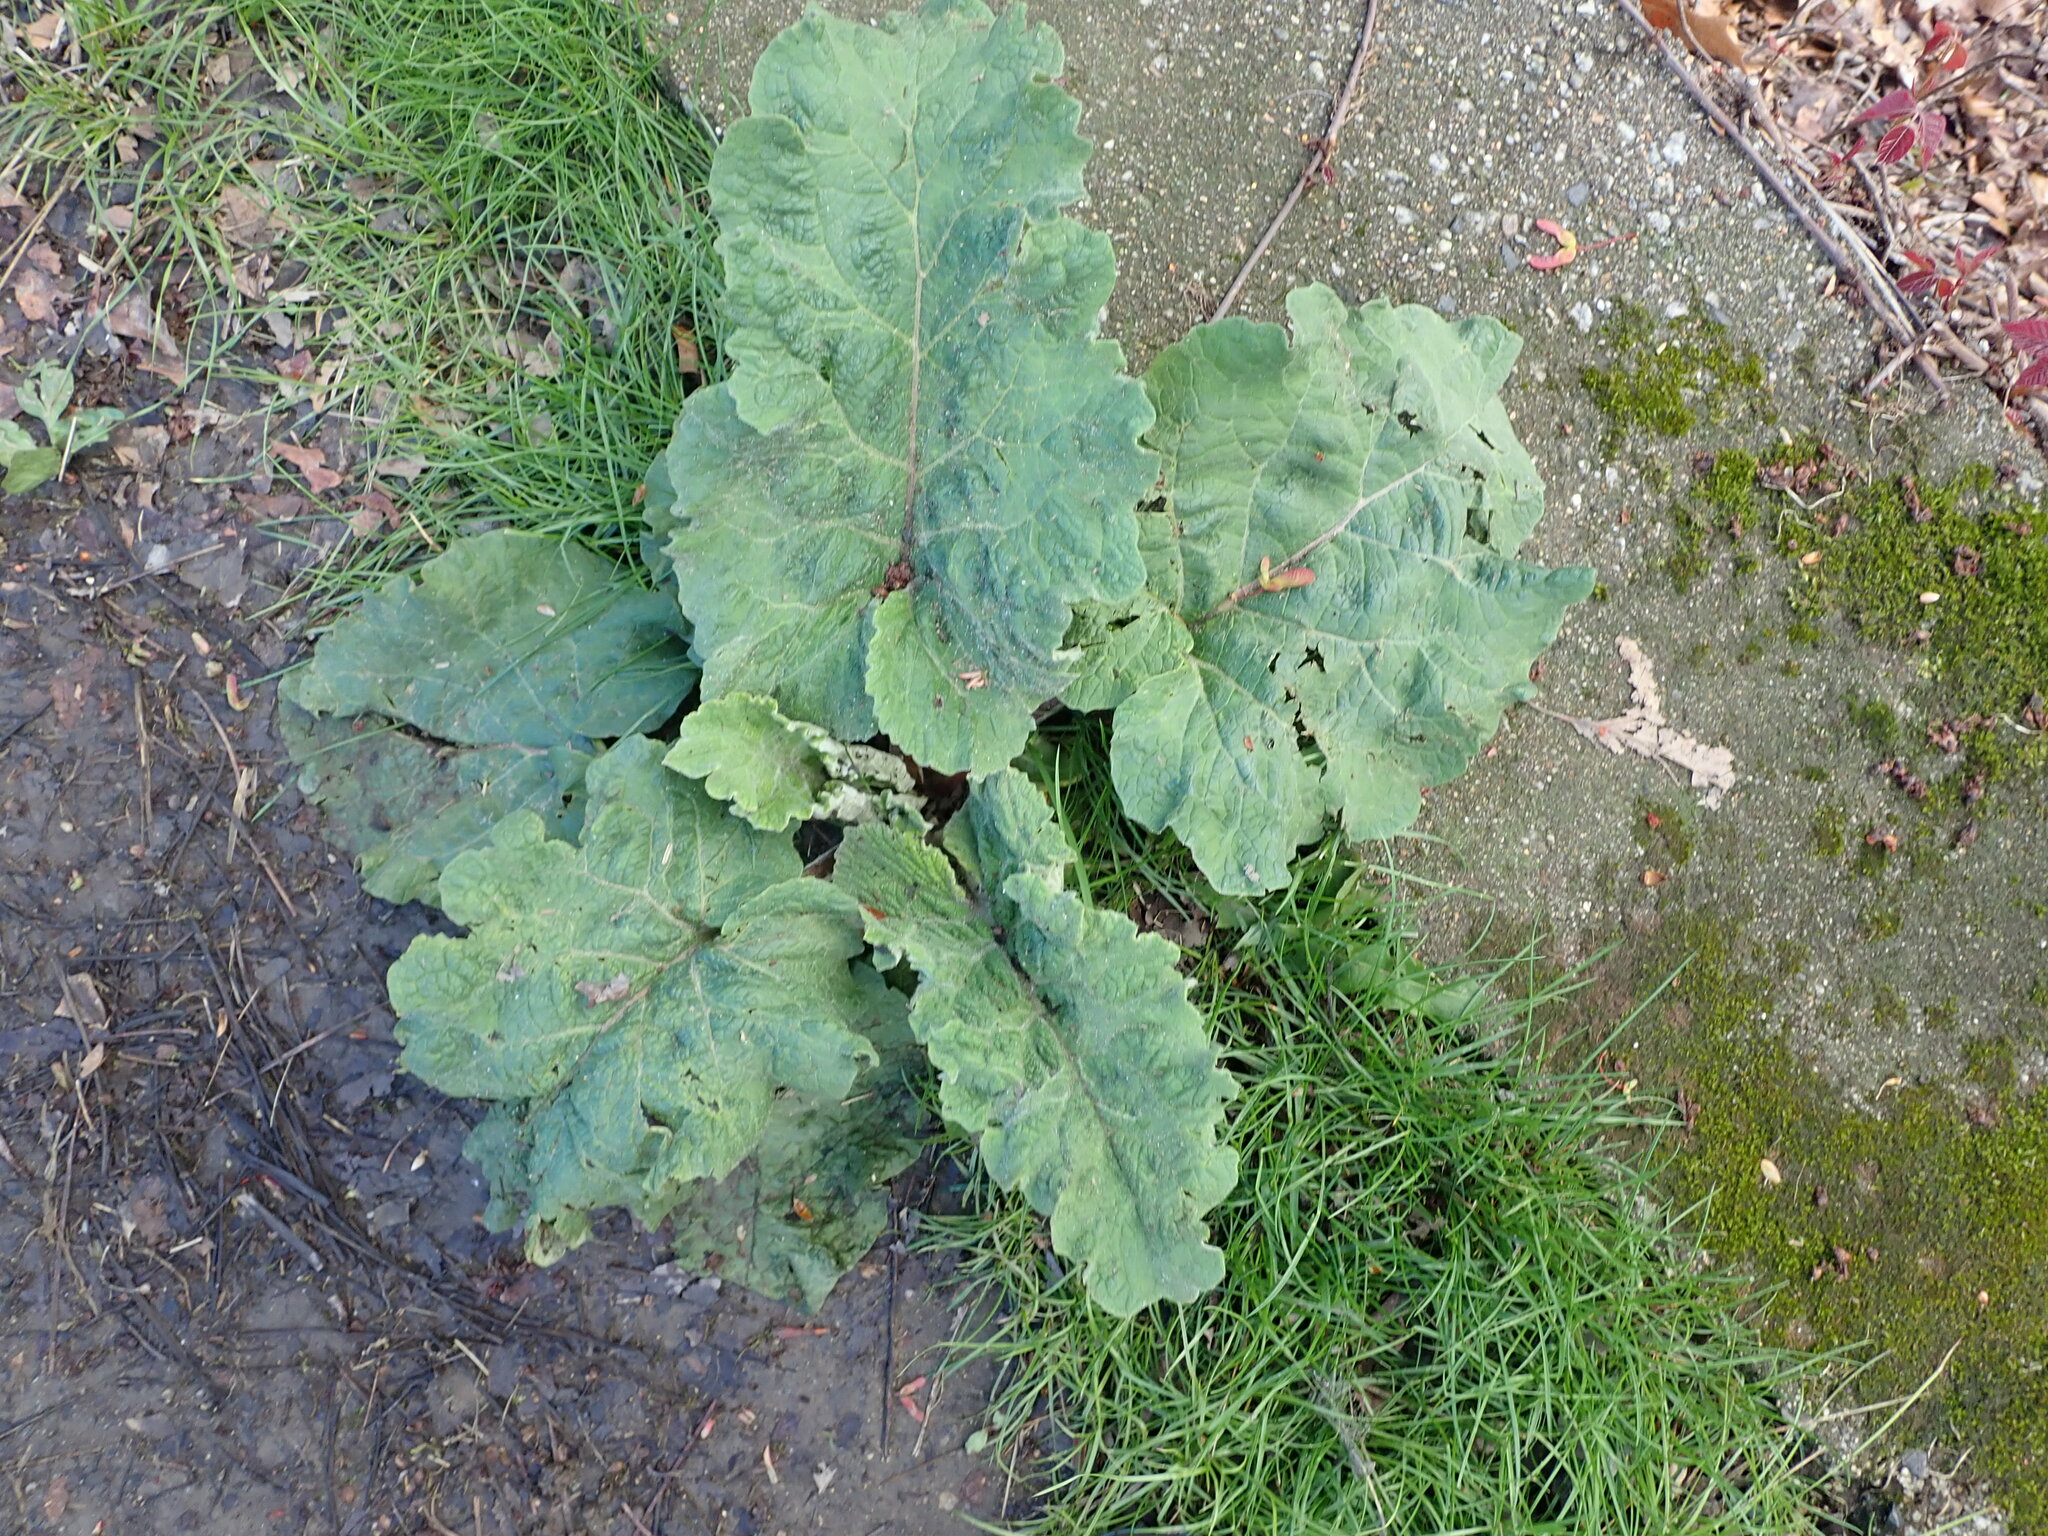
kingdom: Plantae
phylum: Tracheophyta
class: Magnoliopsida
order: Asterales
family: Asteraceae
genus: Arctium
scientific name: Arctium
